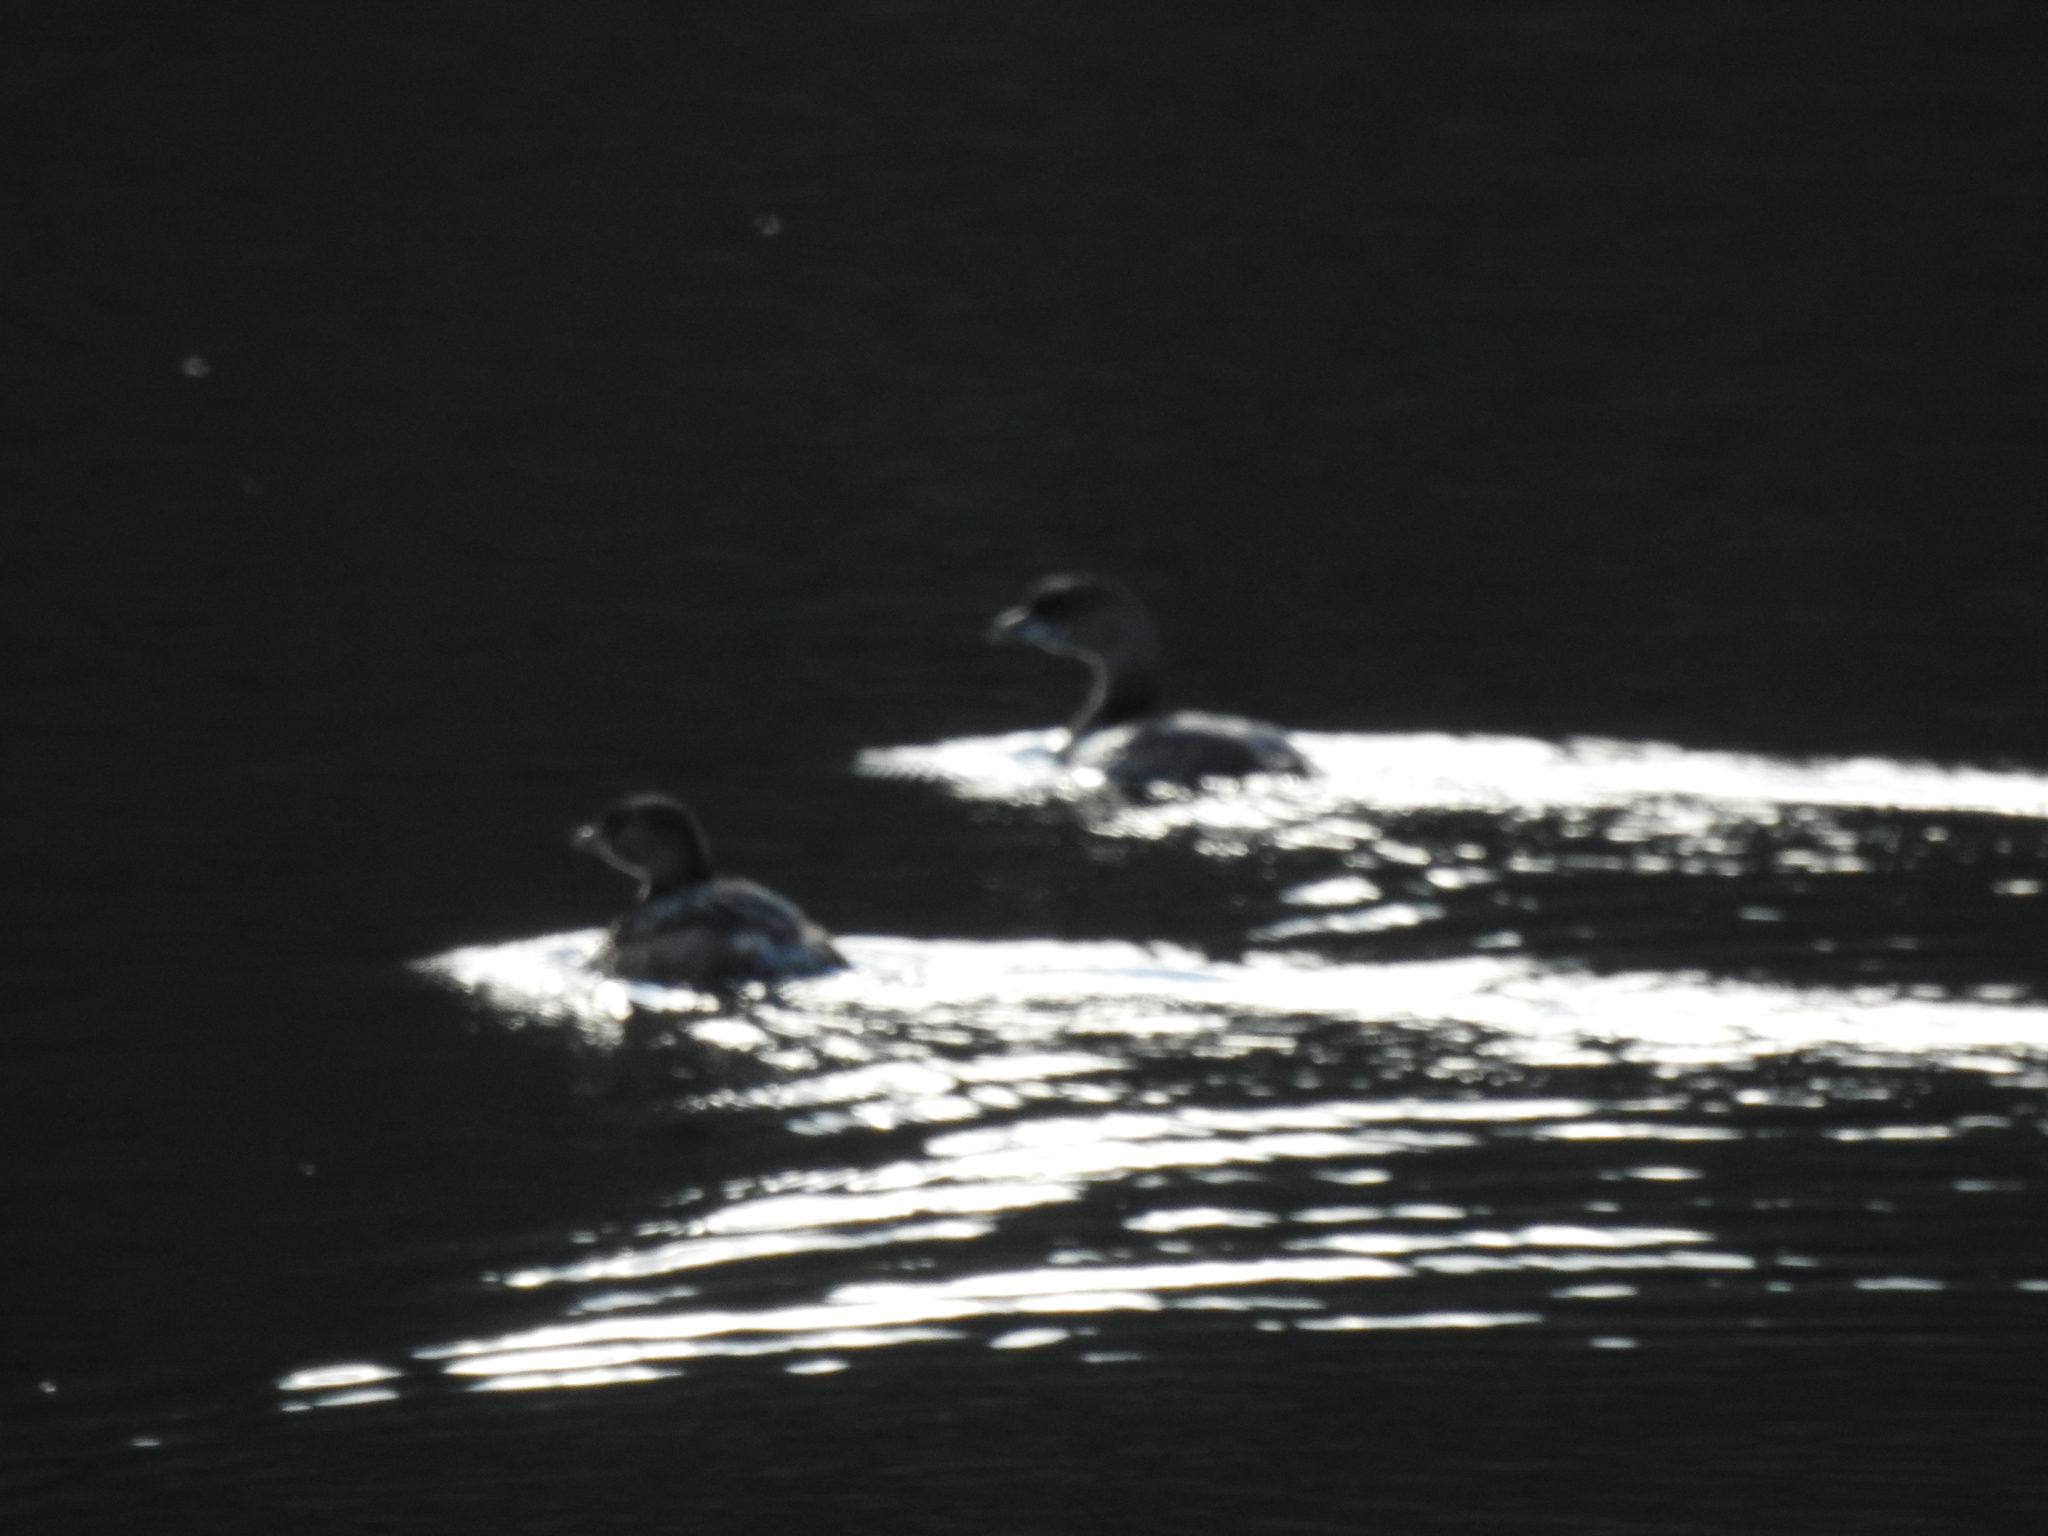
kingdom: Animalia
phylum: Chordata
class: Aves
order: Podicipediformes
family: Podicipedidae
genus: Podilymbus
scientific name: Podilymbus podiceps
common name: Pied-billed grebe
